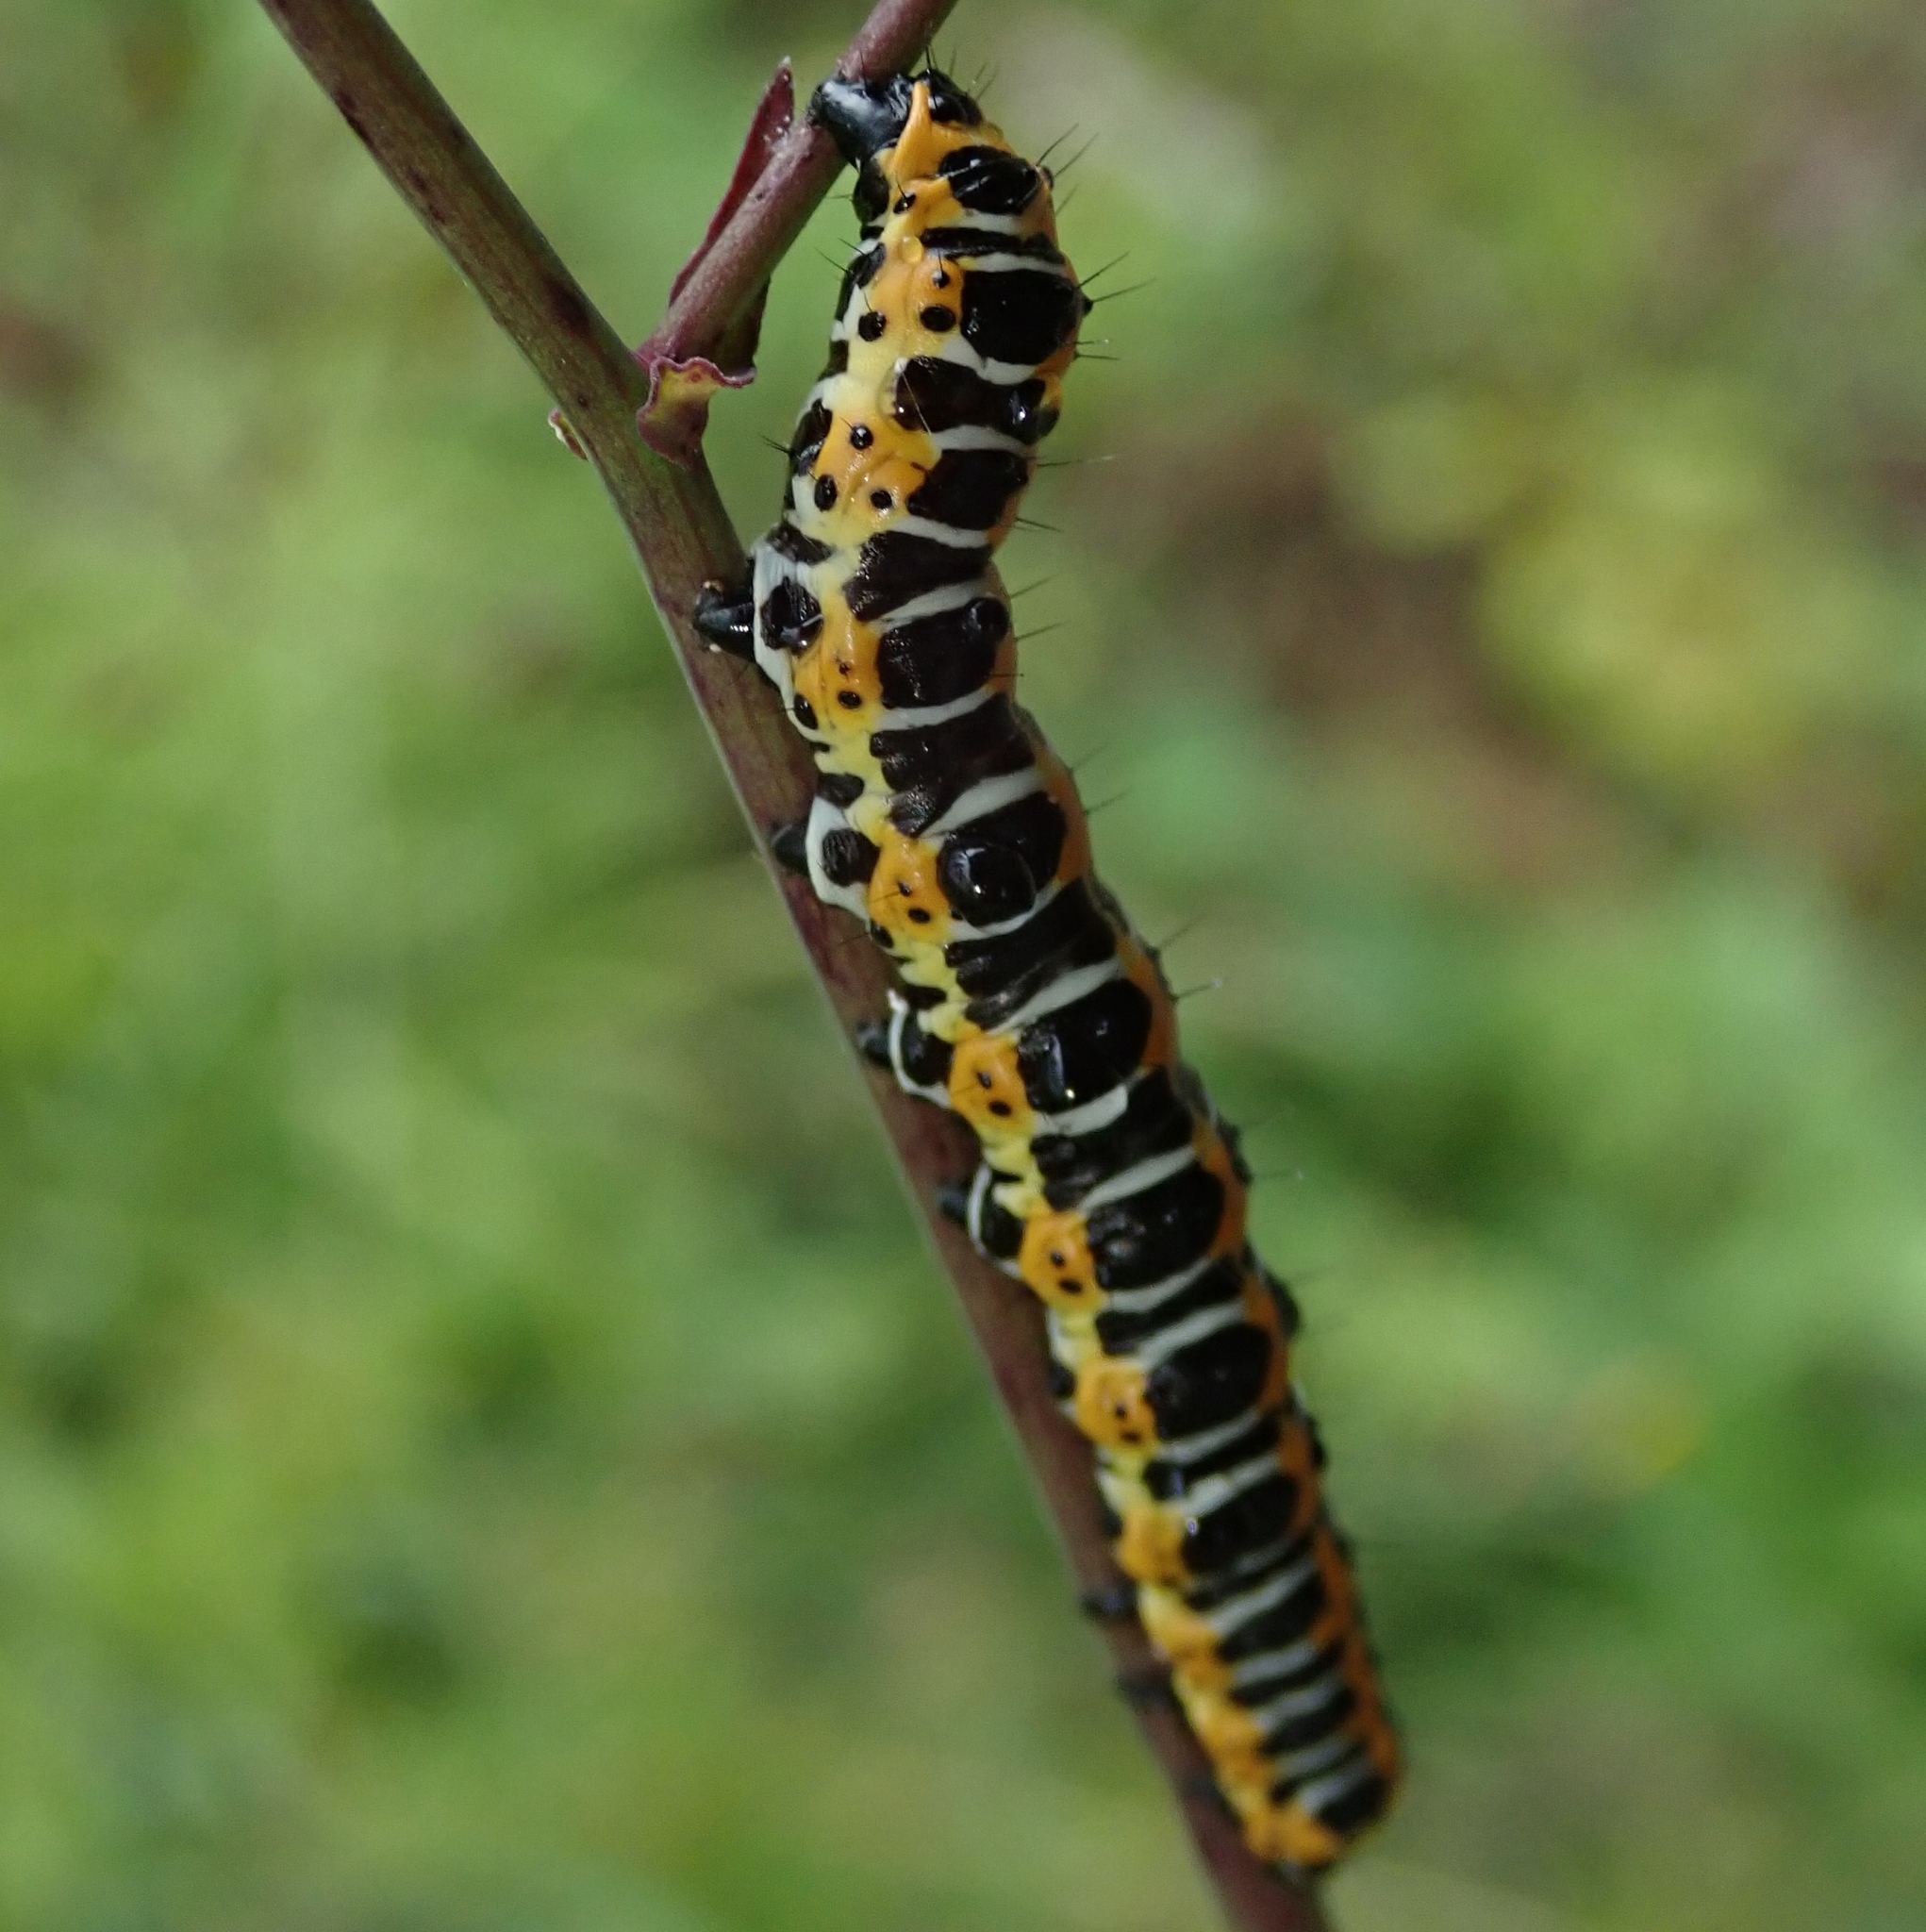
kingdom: Animalia
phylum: Arthropoda
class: Insecta
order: Lepidoptera
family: Noctuidae
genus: Cucullia
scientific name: Cucullia lactucae
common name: Lettuce shark
